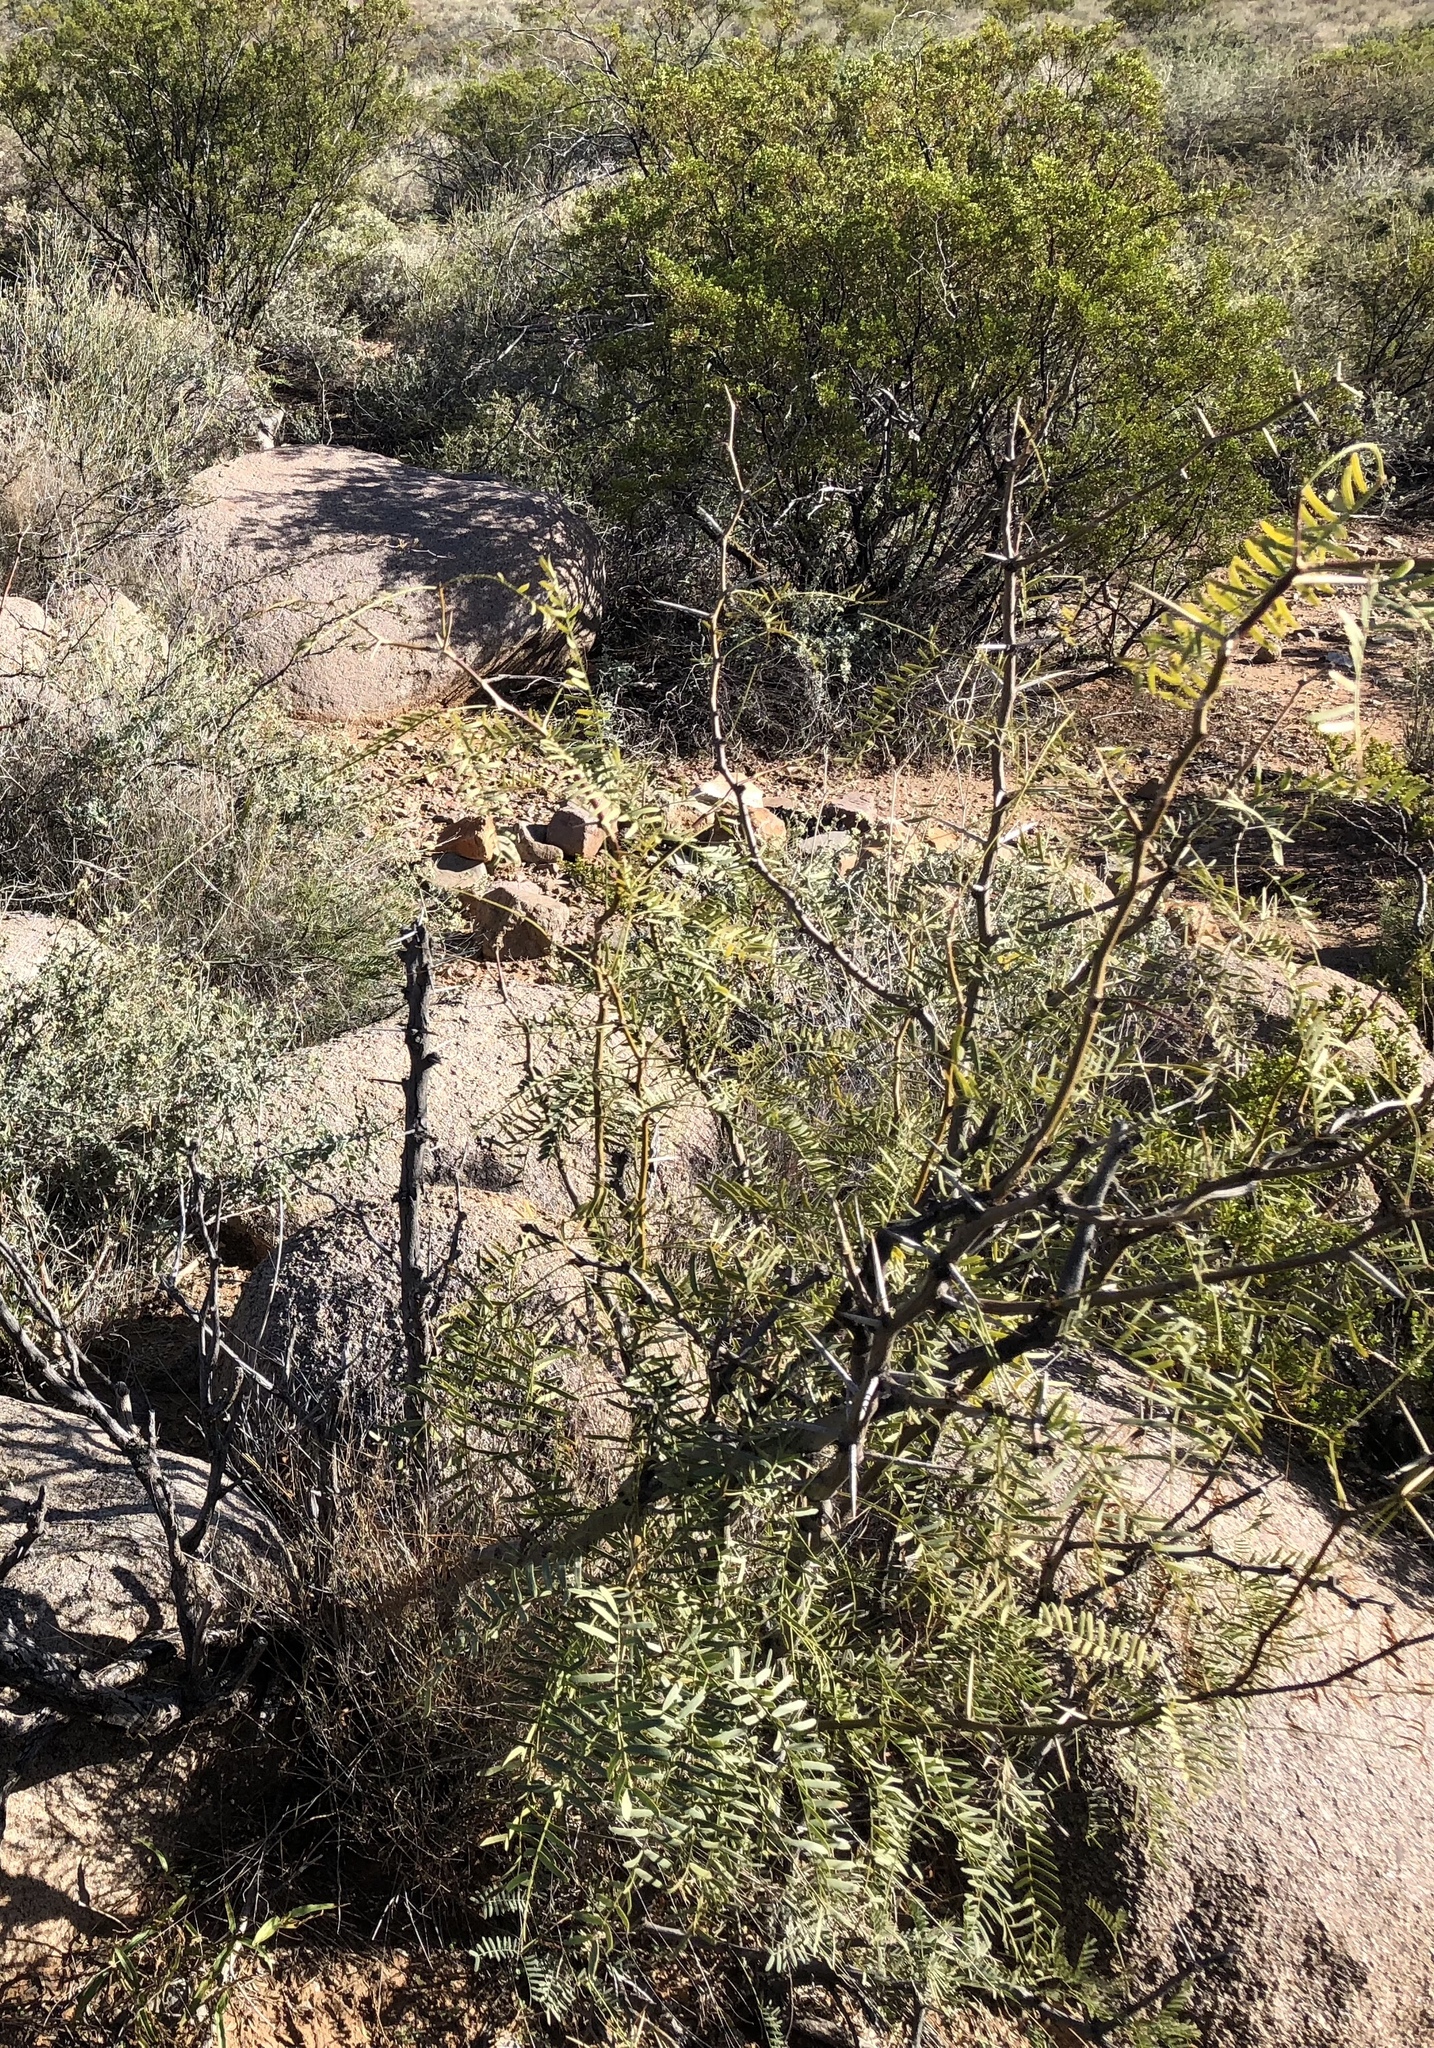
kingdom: Plantae
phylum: Tracheophyta
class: Magnoliopsida
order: Fabales
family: Fabaceae
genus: Prosopis
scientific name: Prosopis glandulosa
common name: Honey mesquite
